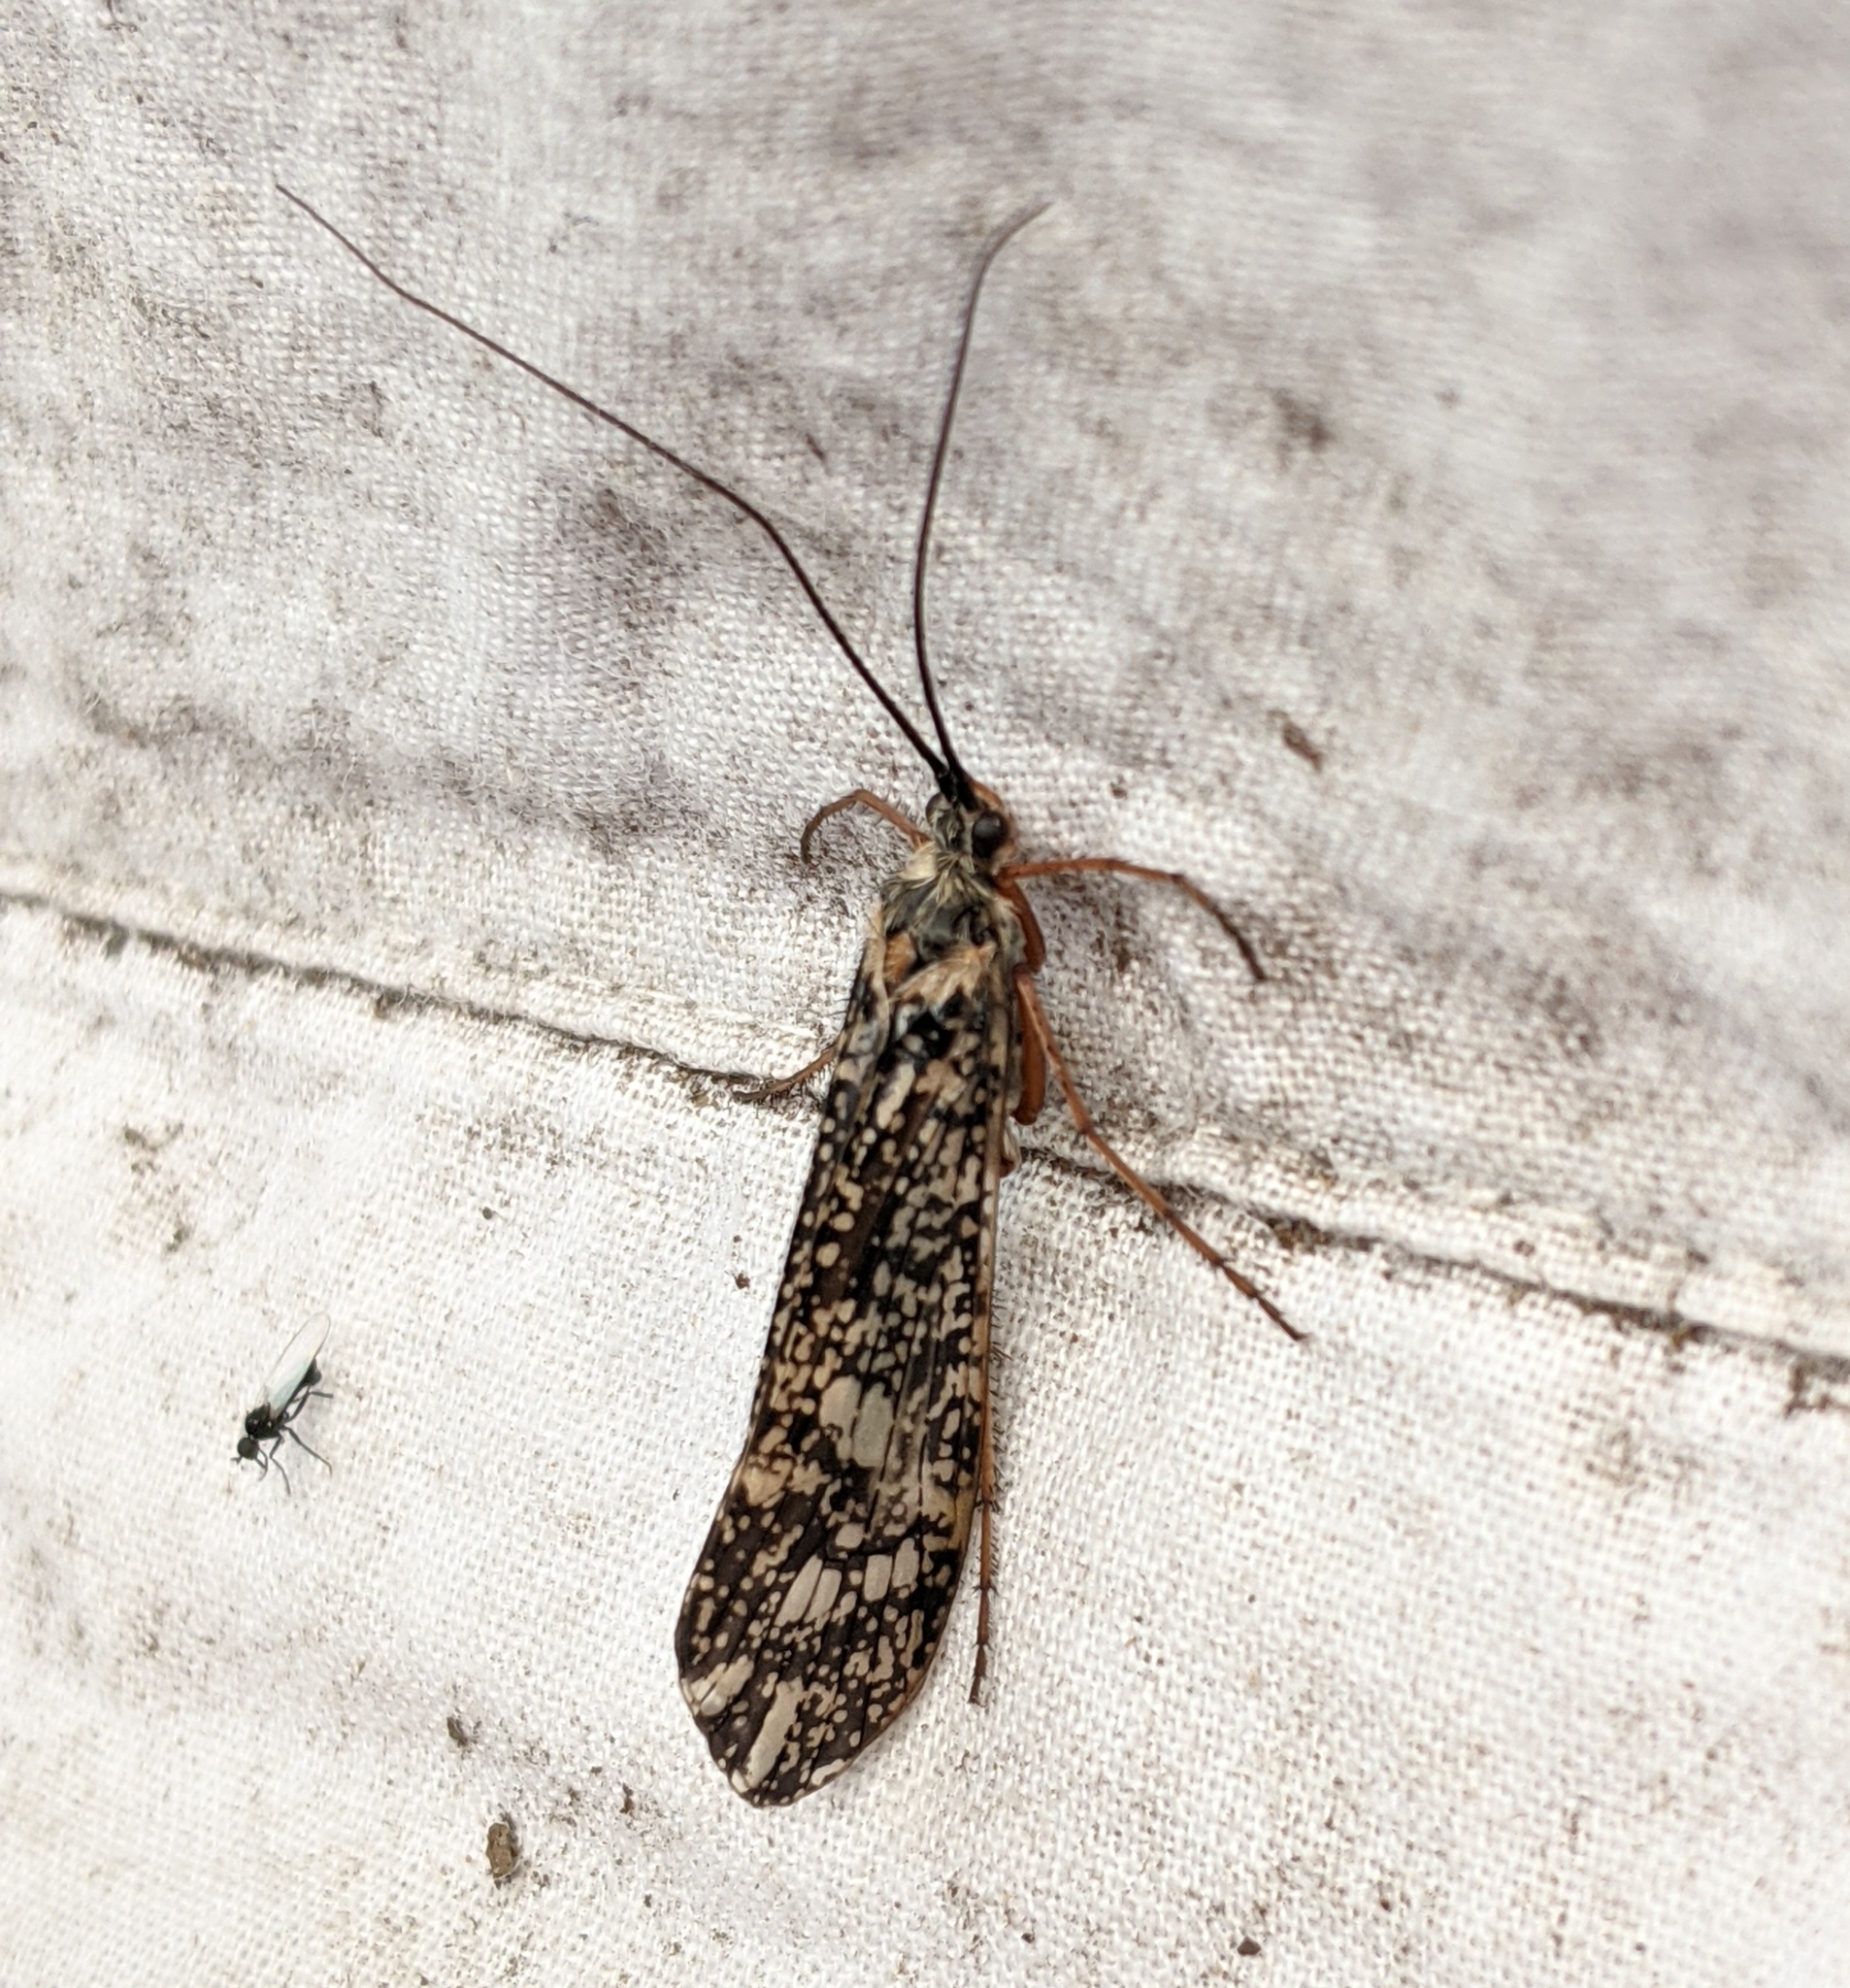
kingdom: Animalia
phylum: Arthropoda
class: Insecta
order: Trichoptera
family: Limnephilidae
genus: Clistoronia
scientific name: Clistoronia magnifica
